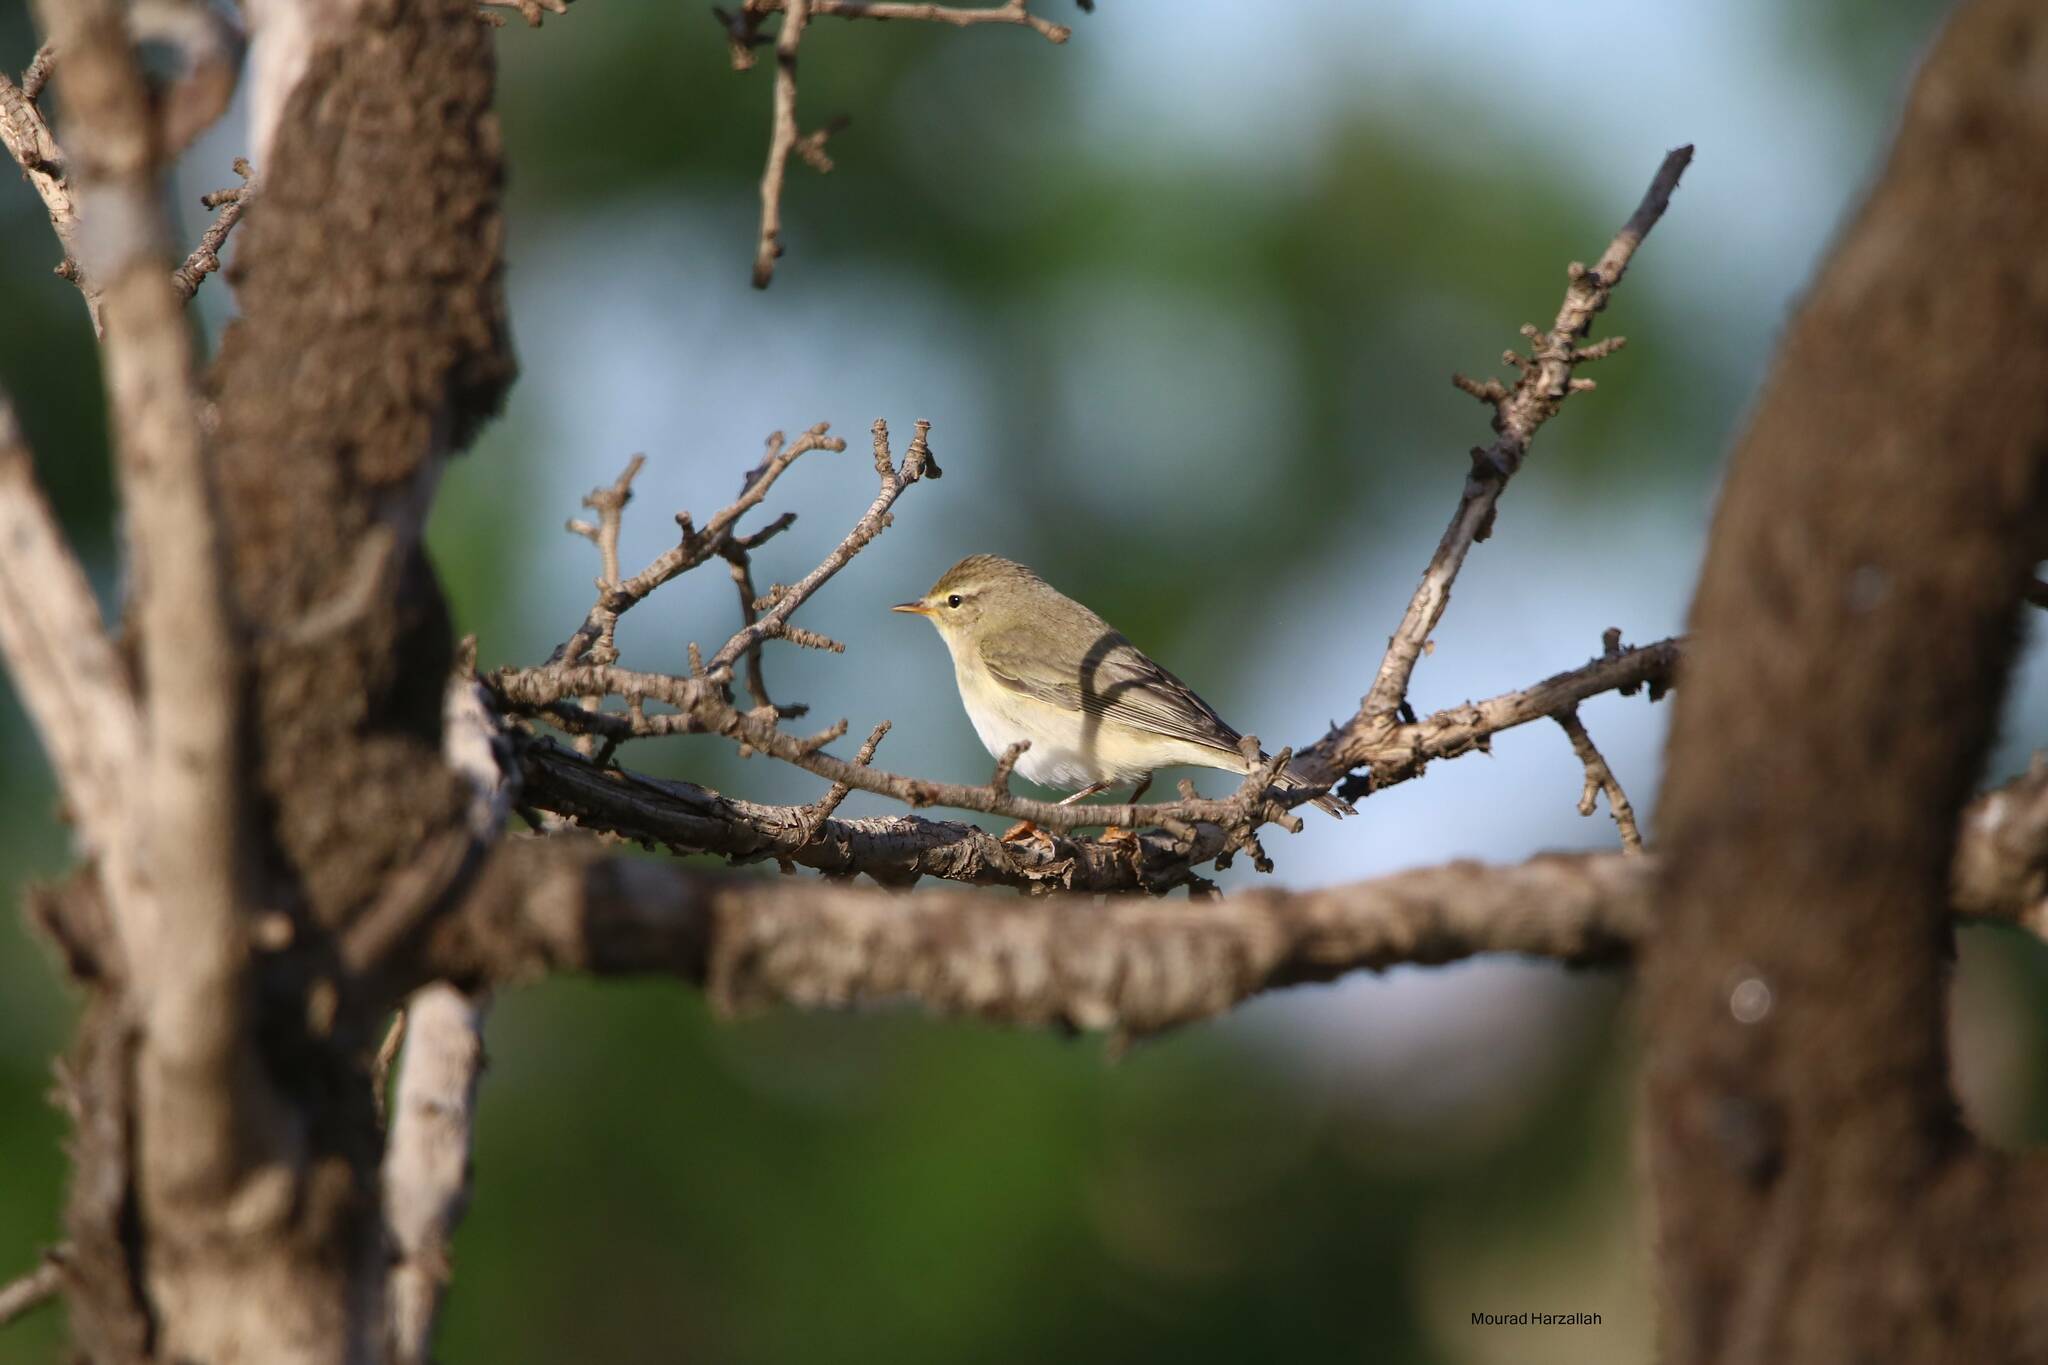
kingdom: Animalia
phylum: Chordata
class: Aves
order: Passeriformes
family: Phylloscopidae
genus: Phylloscopus
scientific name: Phylloscopus trochilus
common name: Willow warbler
